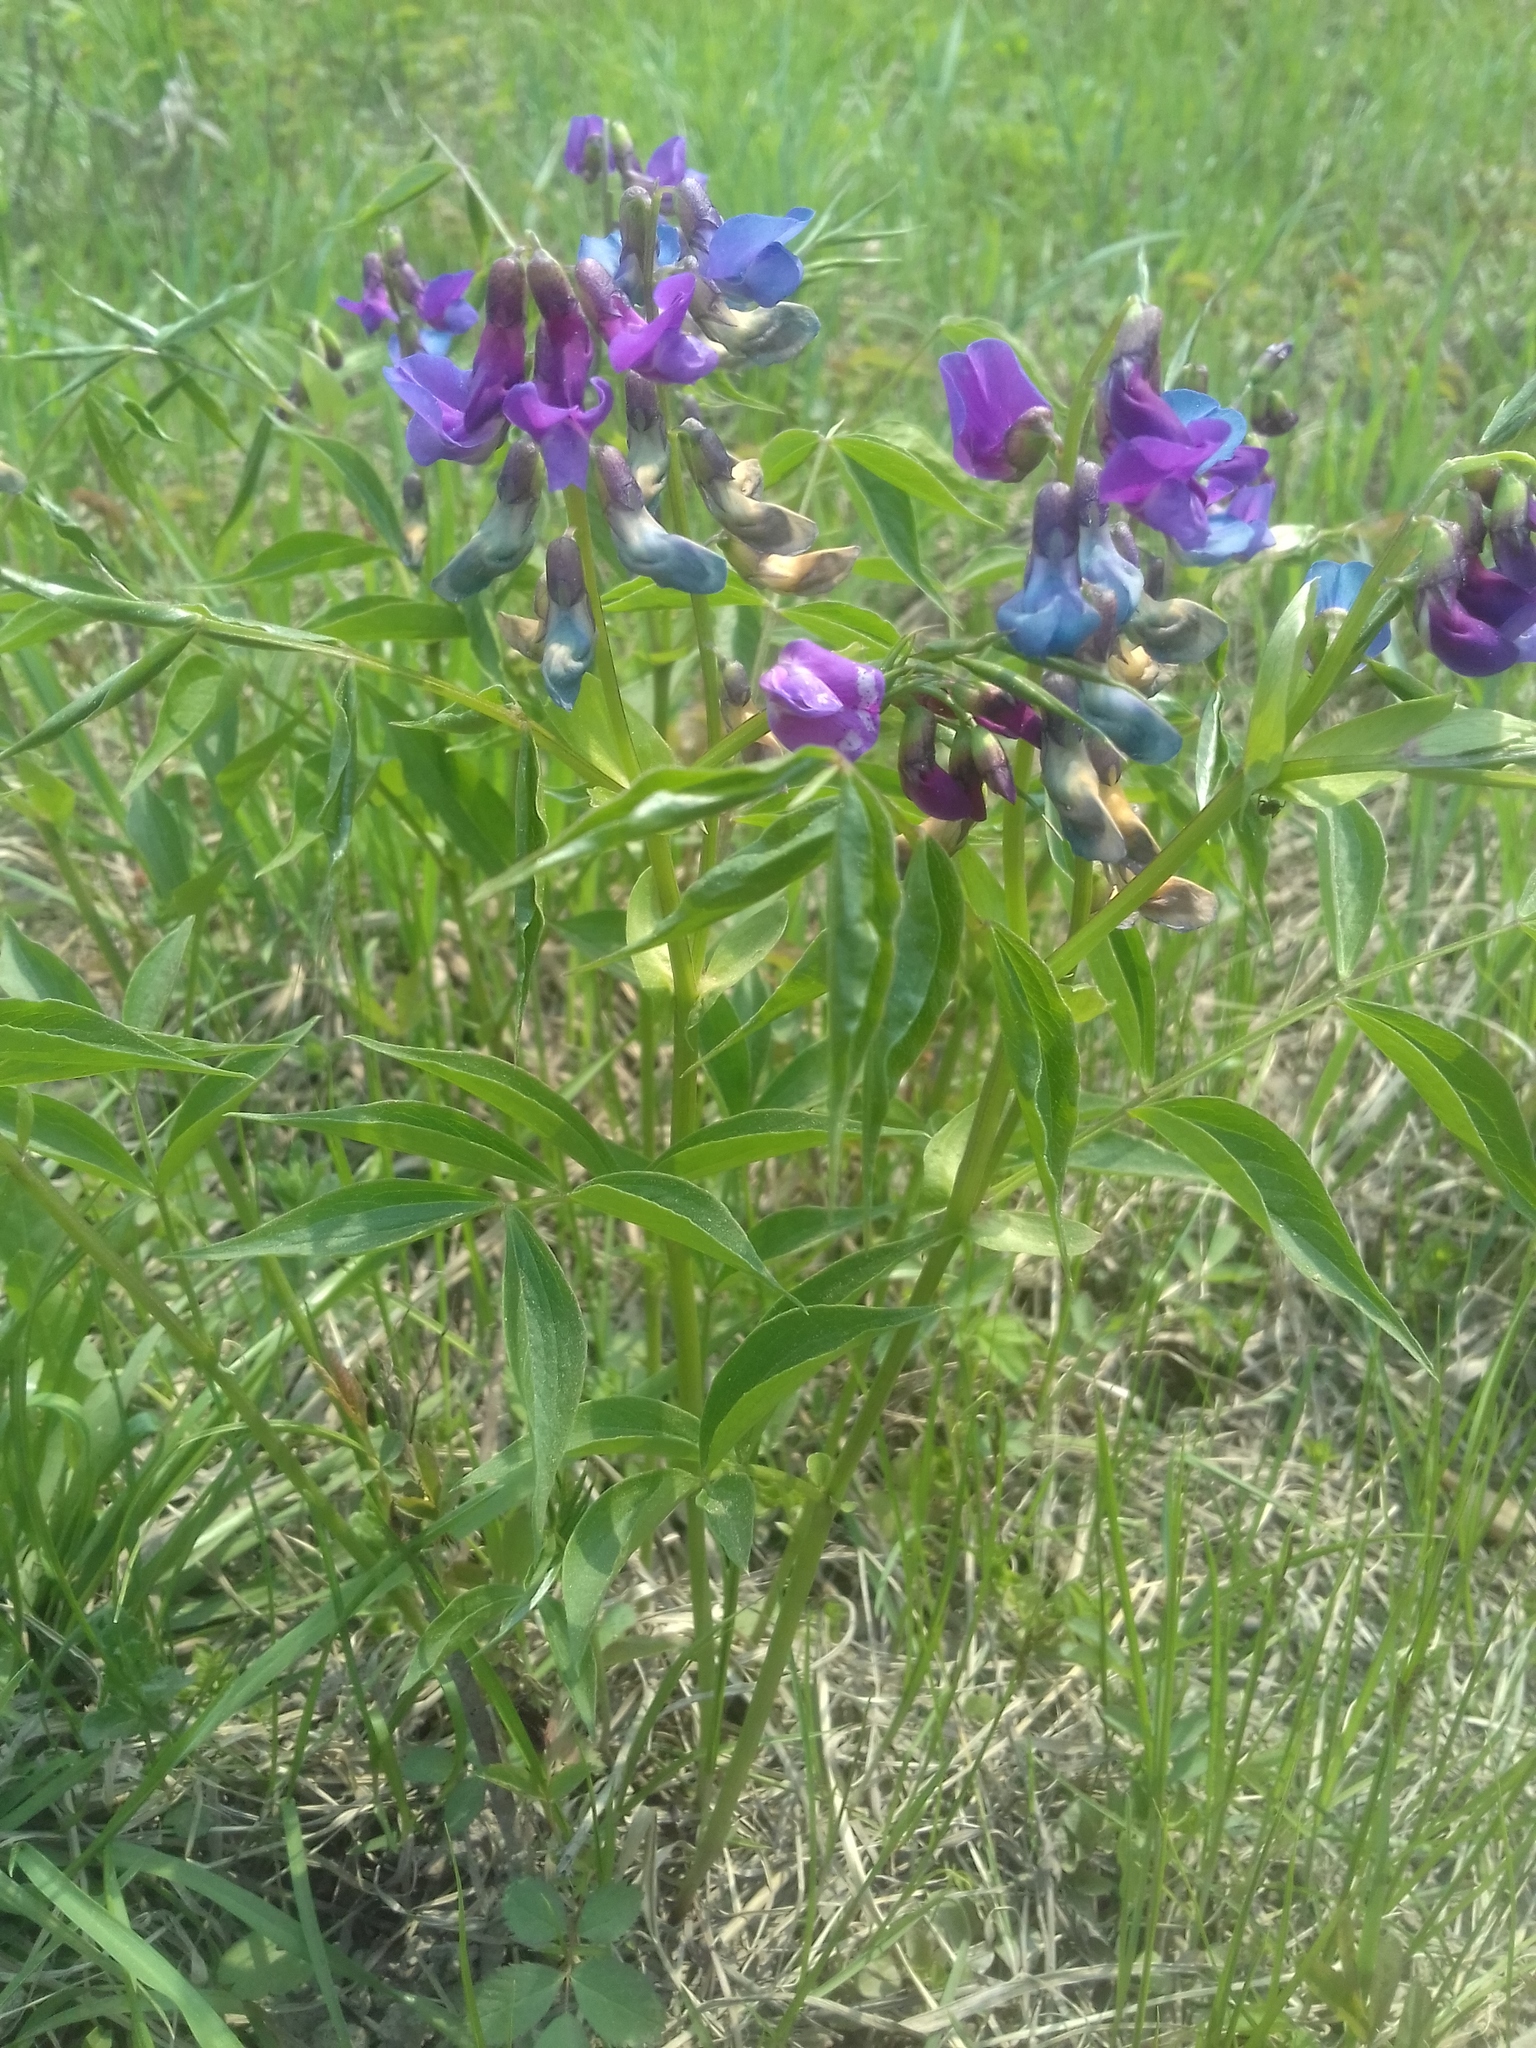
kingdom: Plantae
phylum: Tracheophyta
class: Magnoliopsida
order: Fabales
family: Fabaceae
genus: Lathyrus
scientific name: Lathyrus vernus
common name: Spring pea
